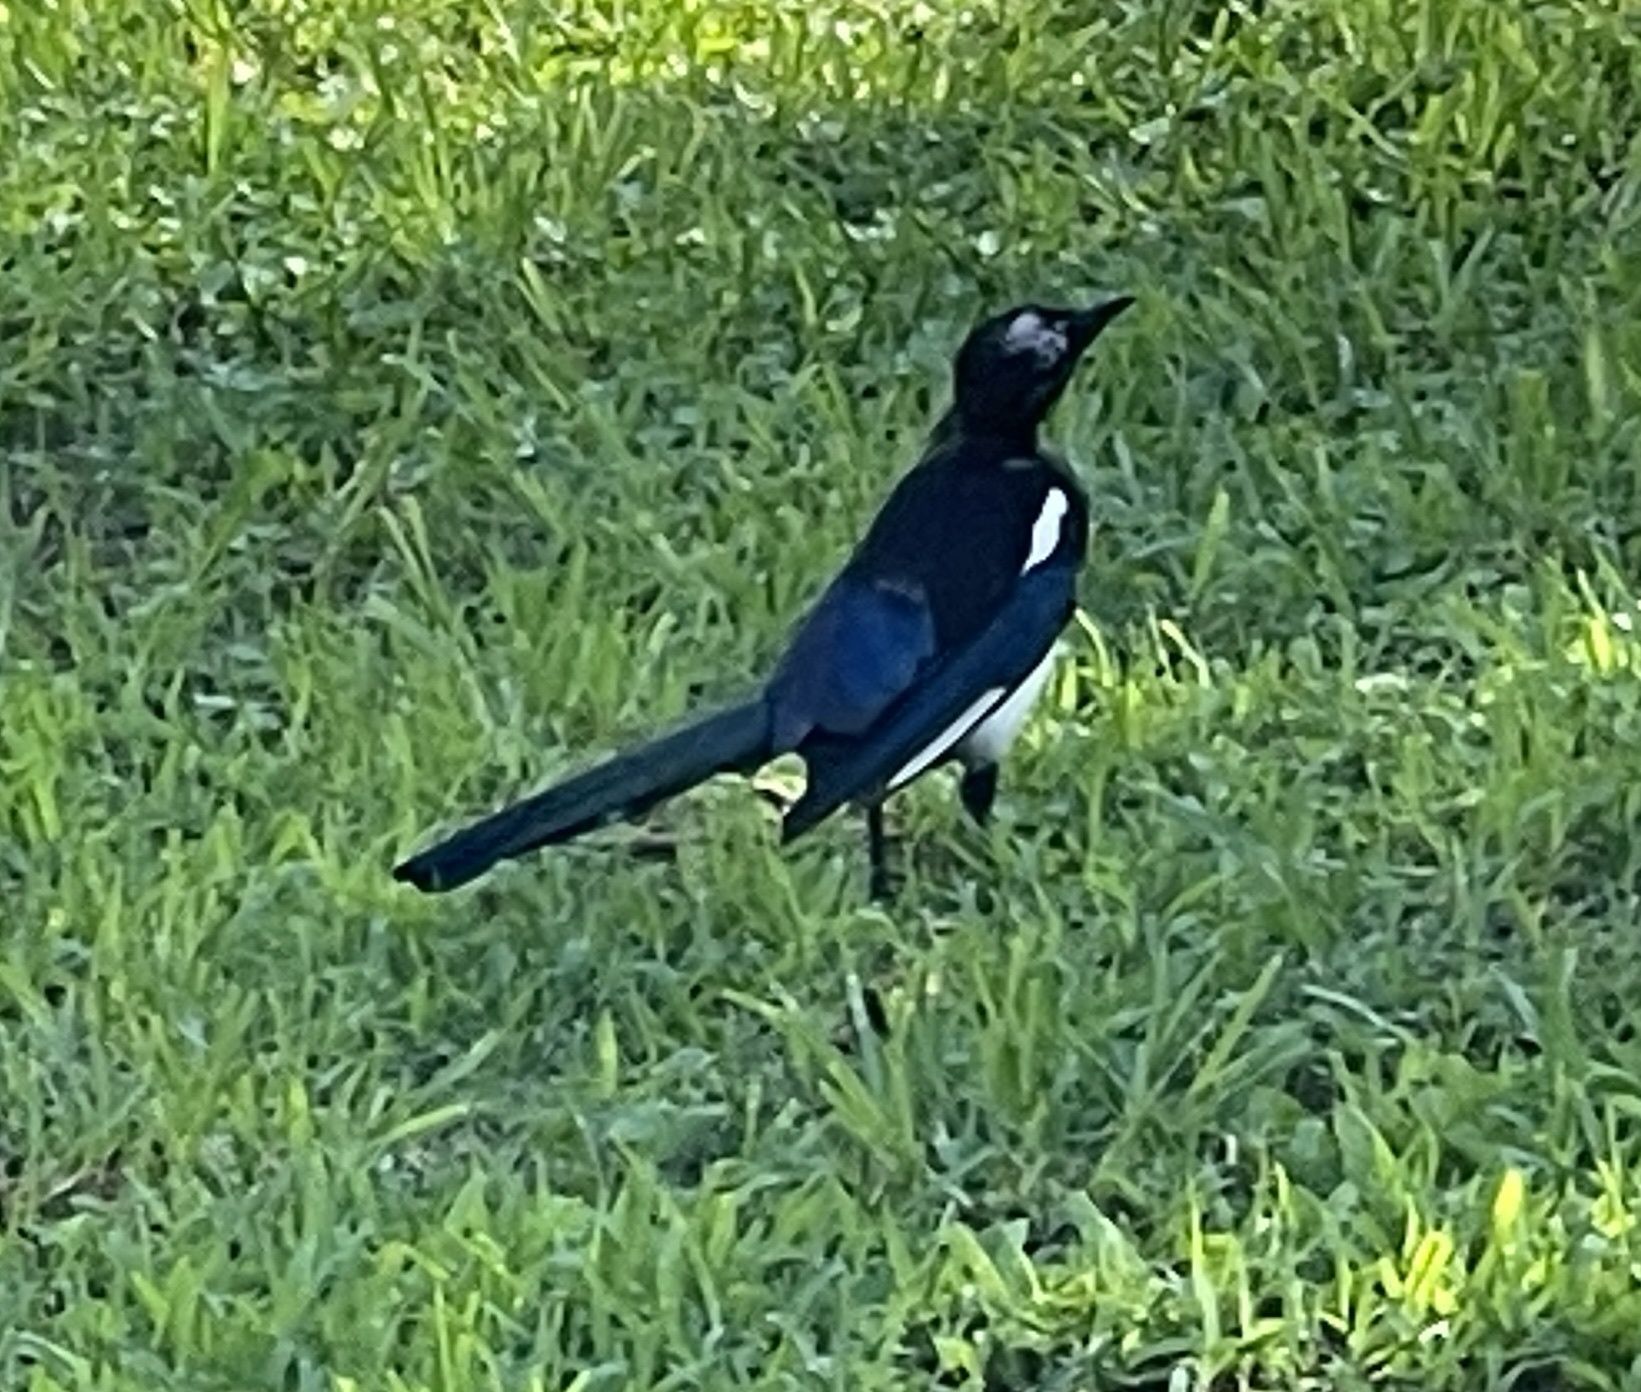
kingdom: Animalia
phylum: Chordata
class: Aves
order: Passeriformes
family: Corvidae
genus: Pica
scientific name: Pica pica
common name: Eurasian magpie
